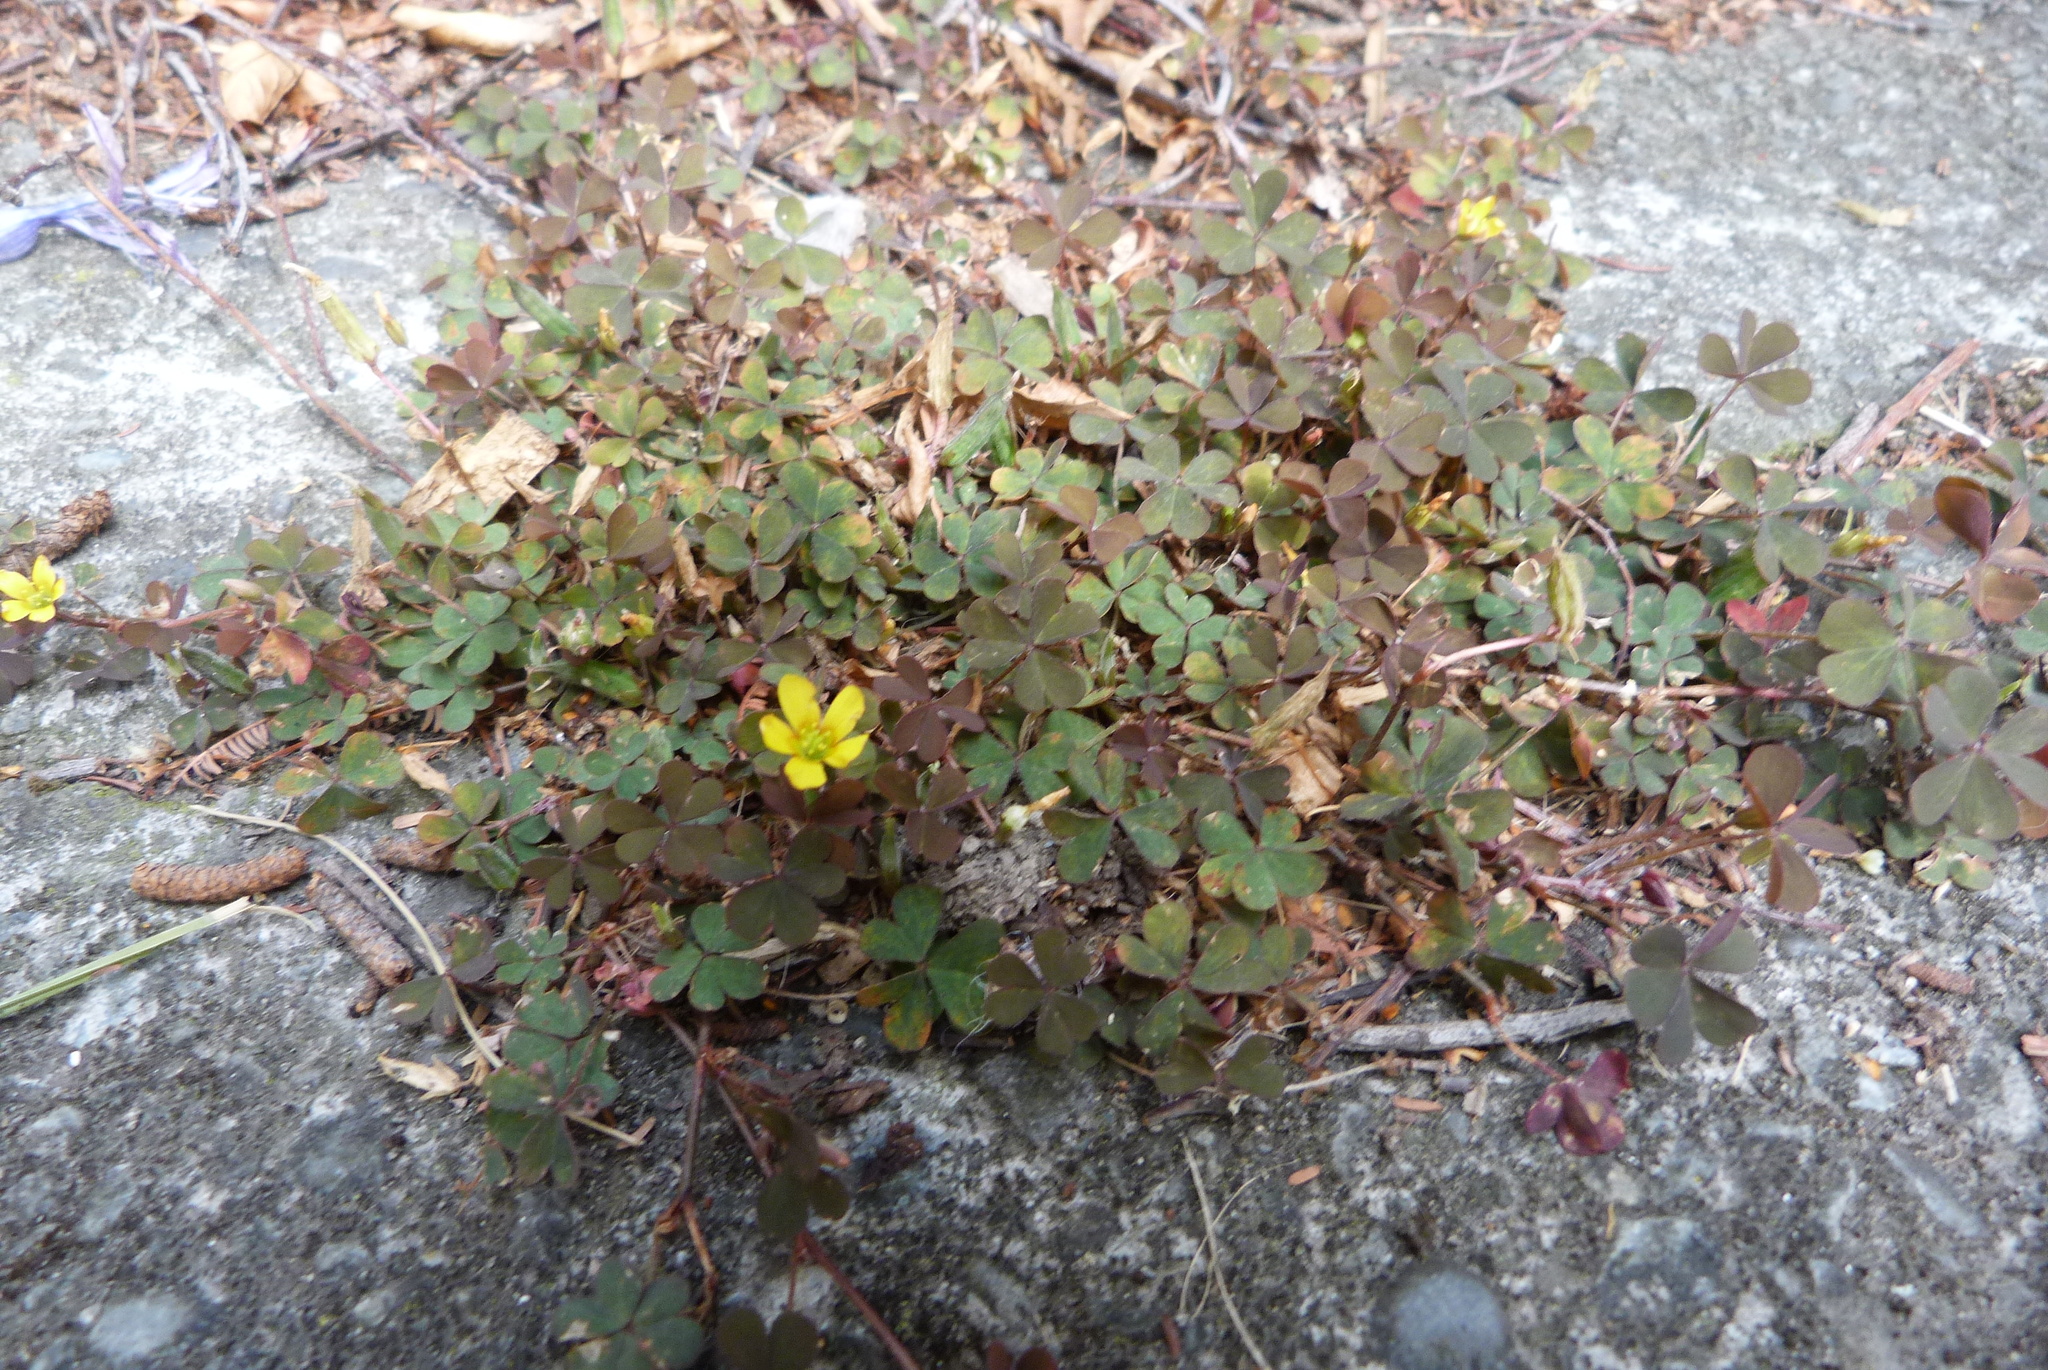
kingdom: Plantae
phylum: Tracheophyta
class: Magnoliopsida
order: Oxalidales
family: Oxalidaceae
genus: Oxalis
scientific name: Oxalis corniculata
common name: Procumbent yellow-sorrel
